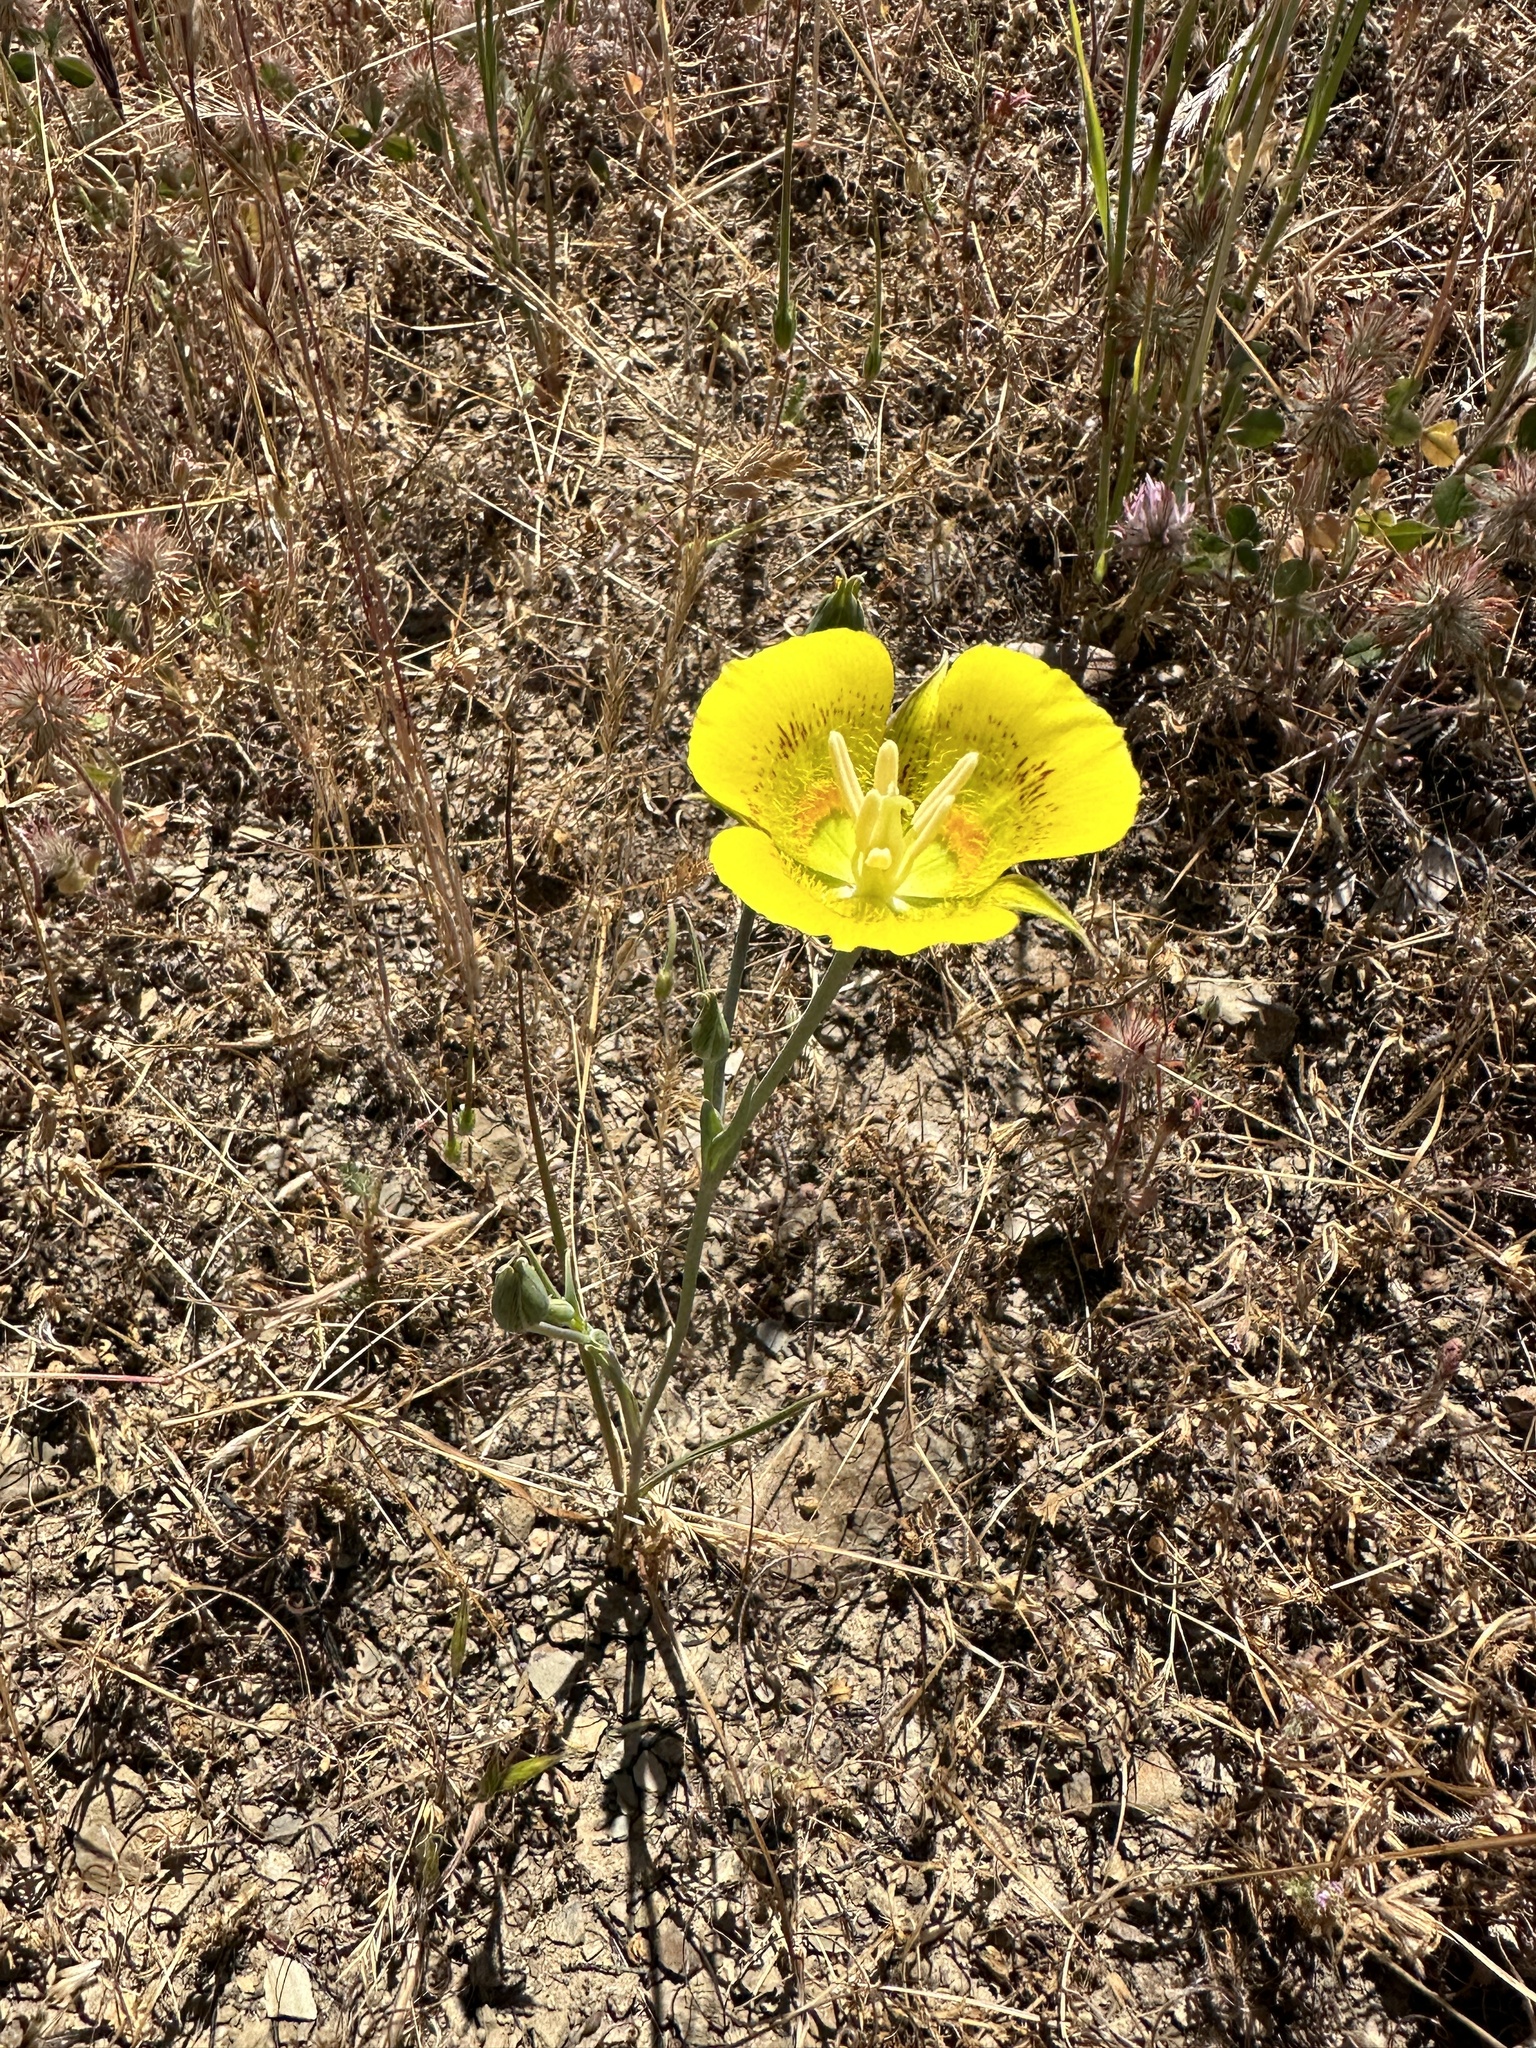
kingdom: Plantae
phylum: Tracheophyta
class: Liliopsida
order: Liliales
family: Liliaceae
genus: Calochortus
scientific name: Calochortus luteus
